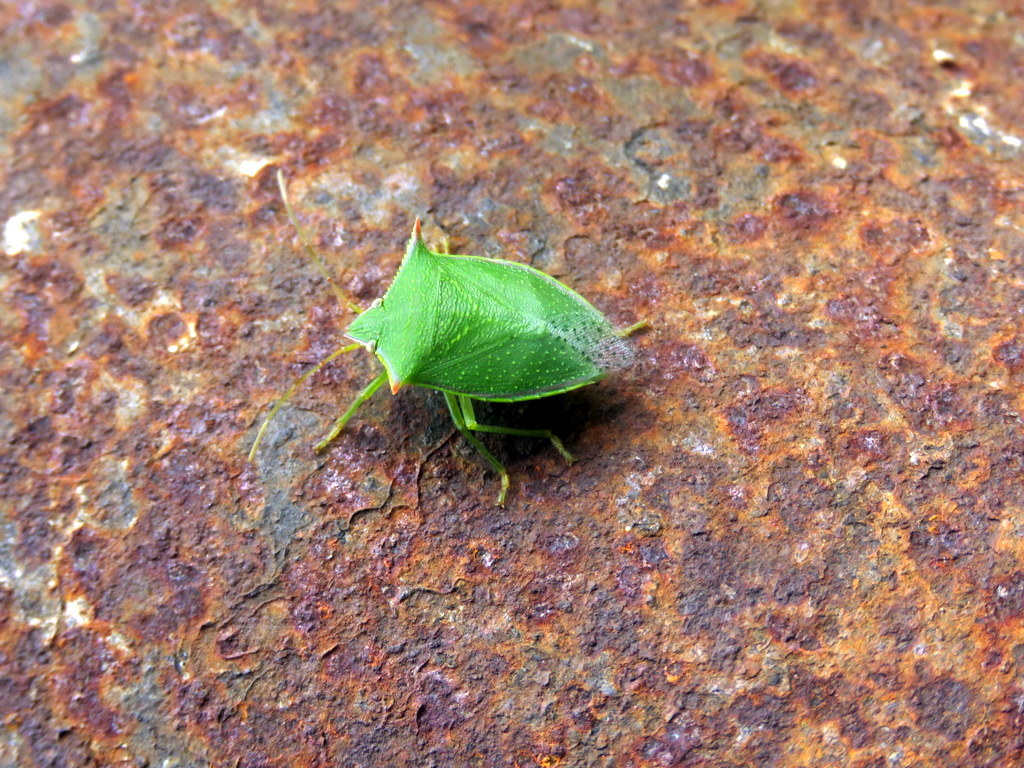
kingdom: Animalia
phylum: Arthropoda
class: Insecta
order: Hemiptera
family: Pentatomidae
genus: Loxa
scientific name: Loxa deducta
